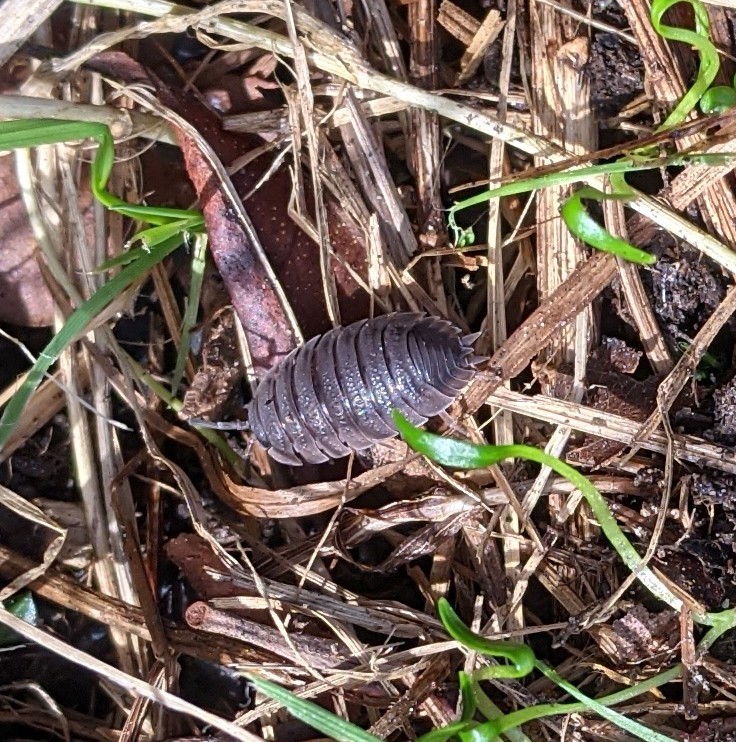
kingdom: Animalia
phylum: Arthropoda
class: Malacostraca
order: Isopoda
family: Porcellionidae
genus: Porcellio
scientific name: Porcellio scaber
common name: Common rough woodlouse
